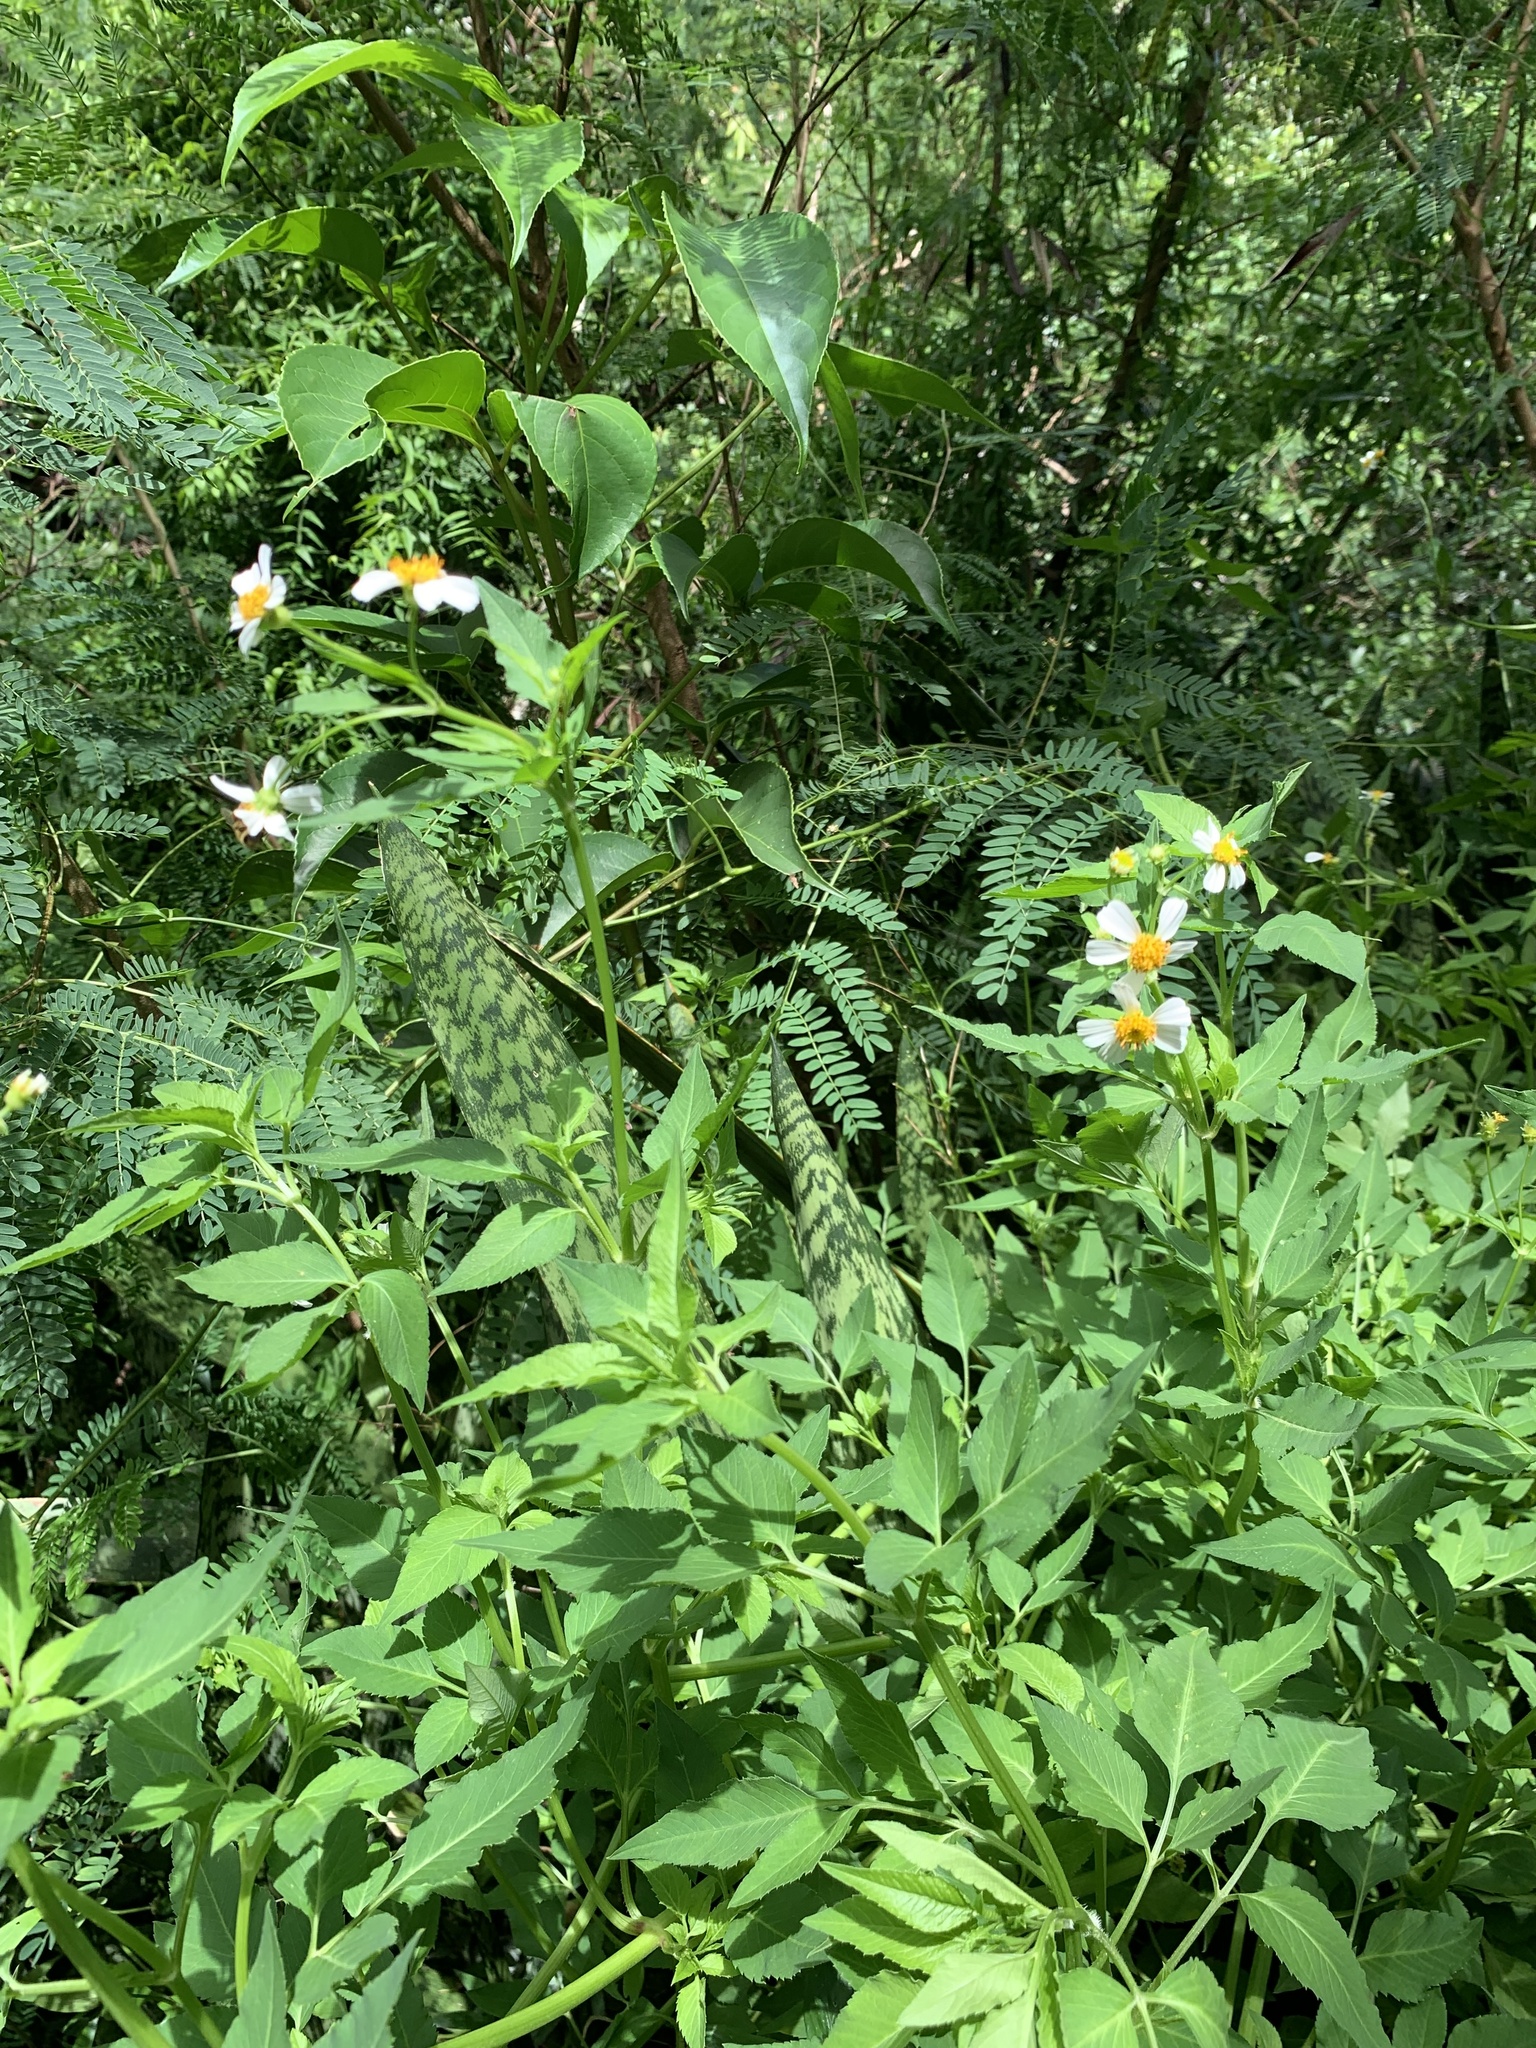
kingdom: Plantae
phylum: Tracheophyta
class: Magnoliopsida
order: Asterales
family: Asteraceae
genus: Bidens
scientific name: Bidens alba
